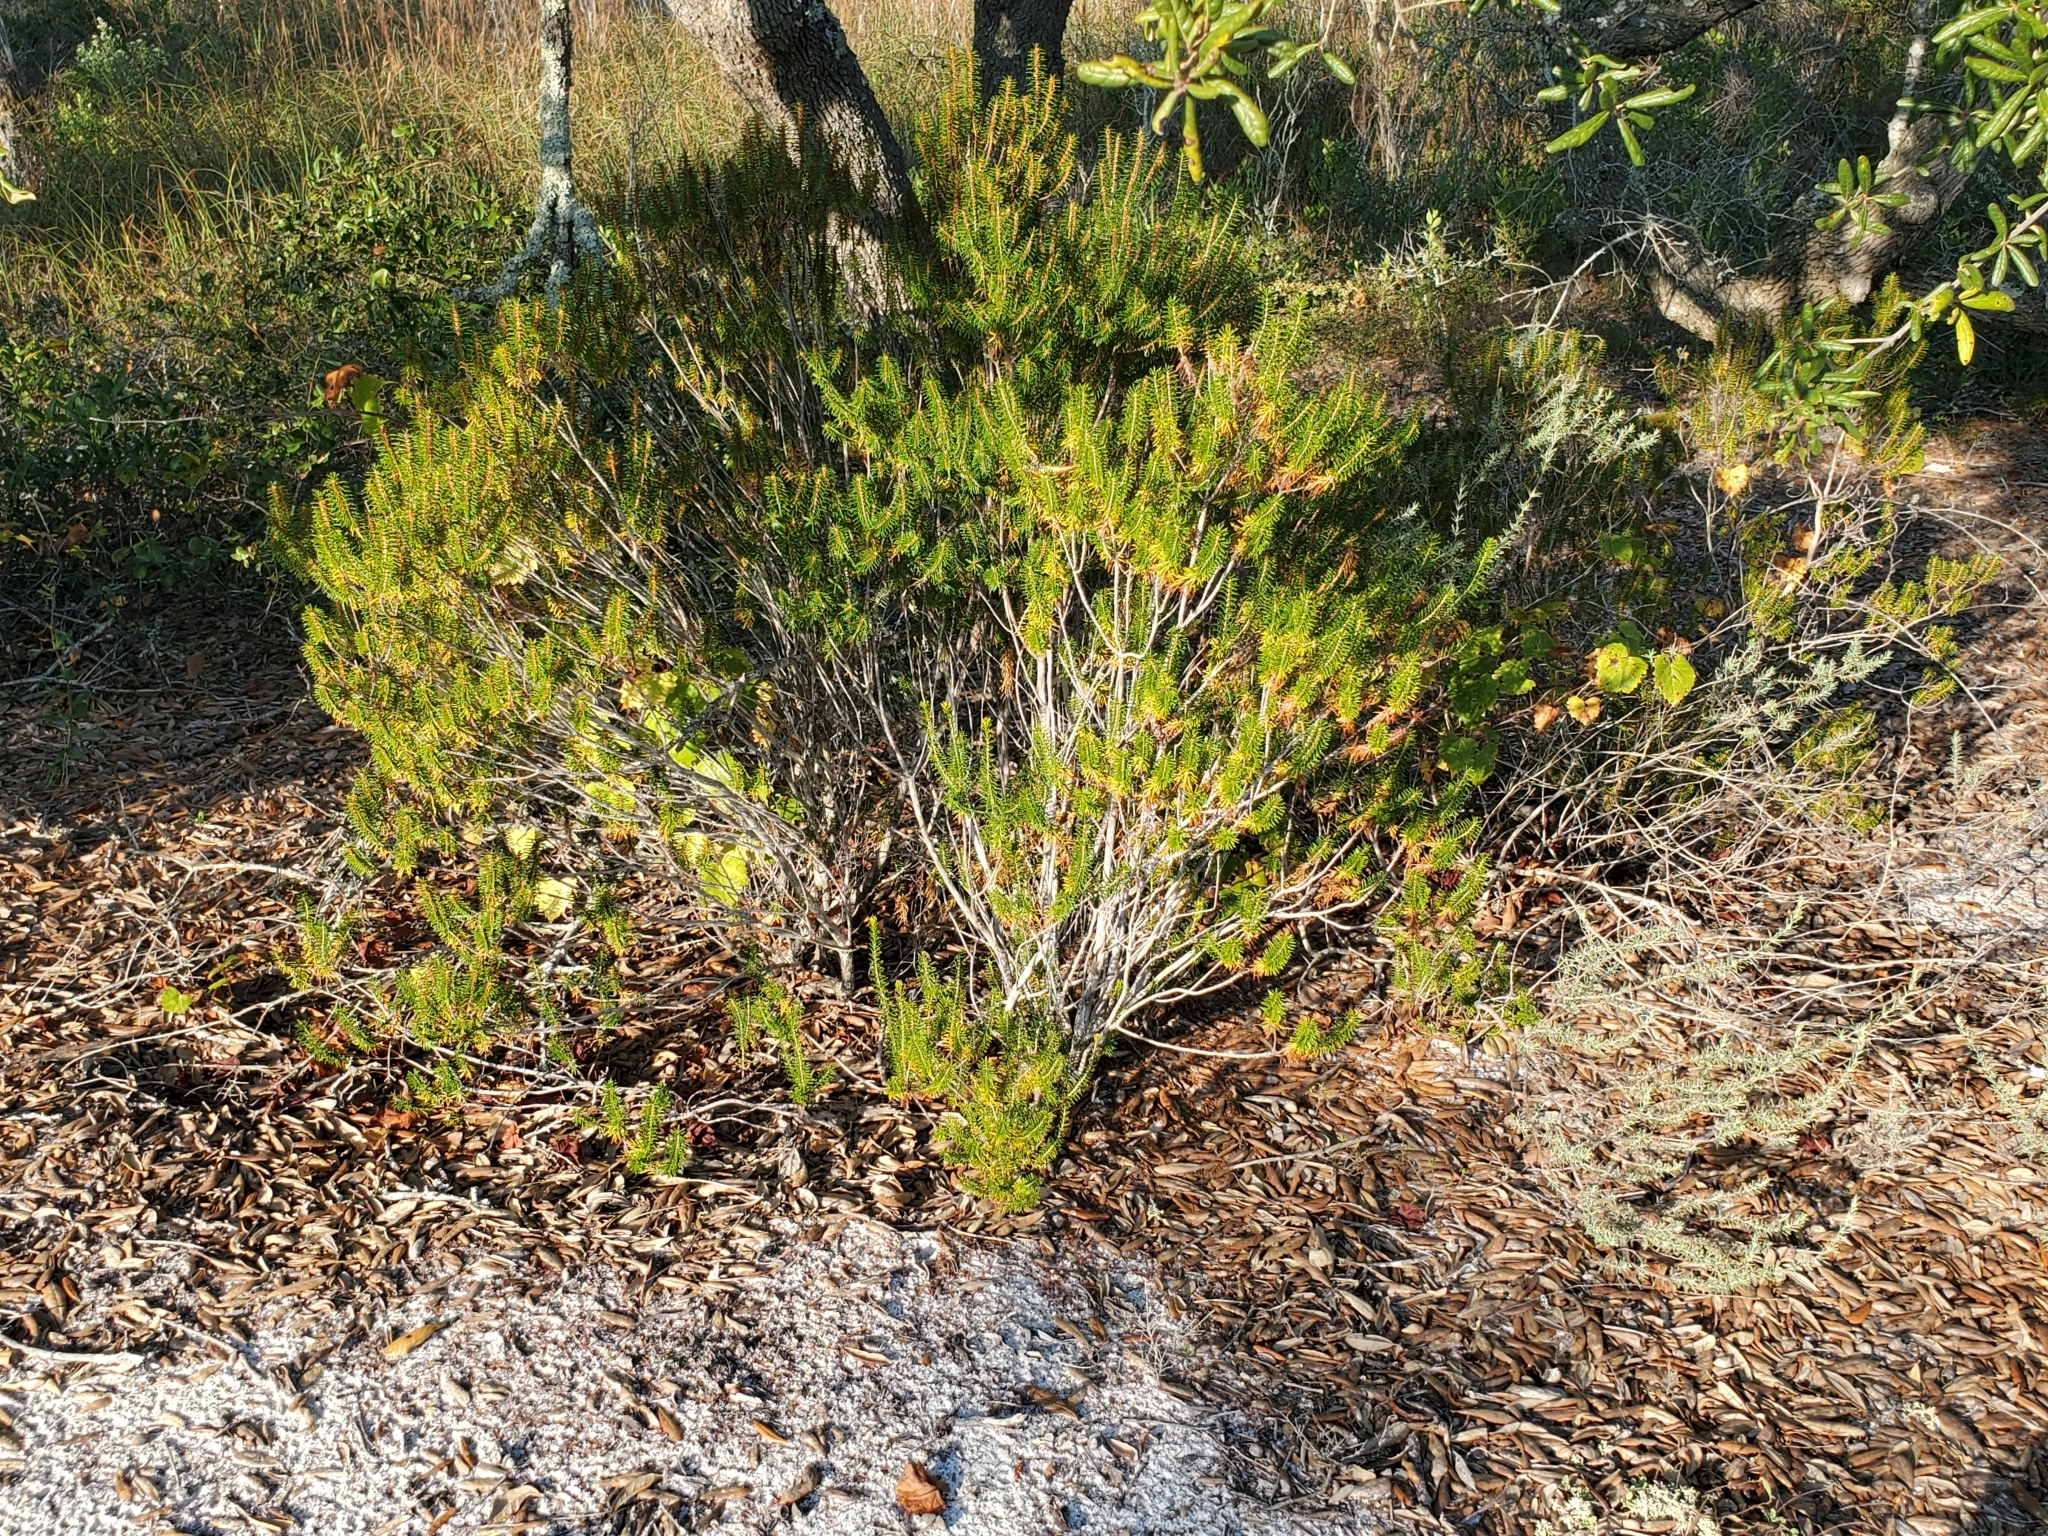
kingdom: Plantae
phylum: Tracheophyta
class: Magnoliopsida
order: Ericales
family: Ericaceae
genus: Ceratiola
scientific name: Ceratiola ericoides
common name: Sandhill-rosemary
